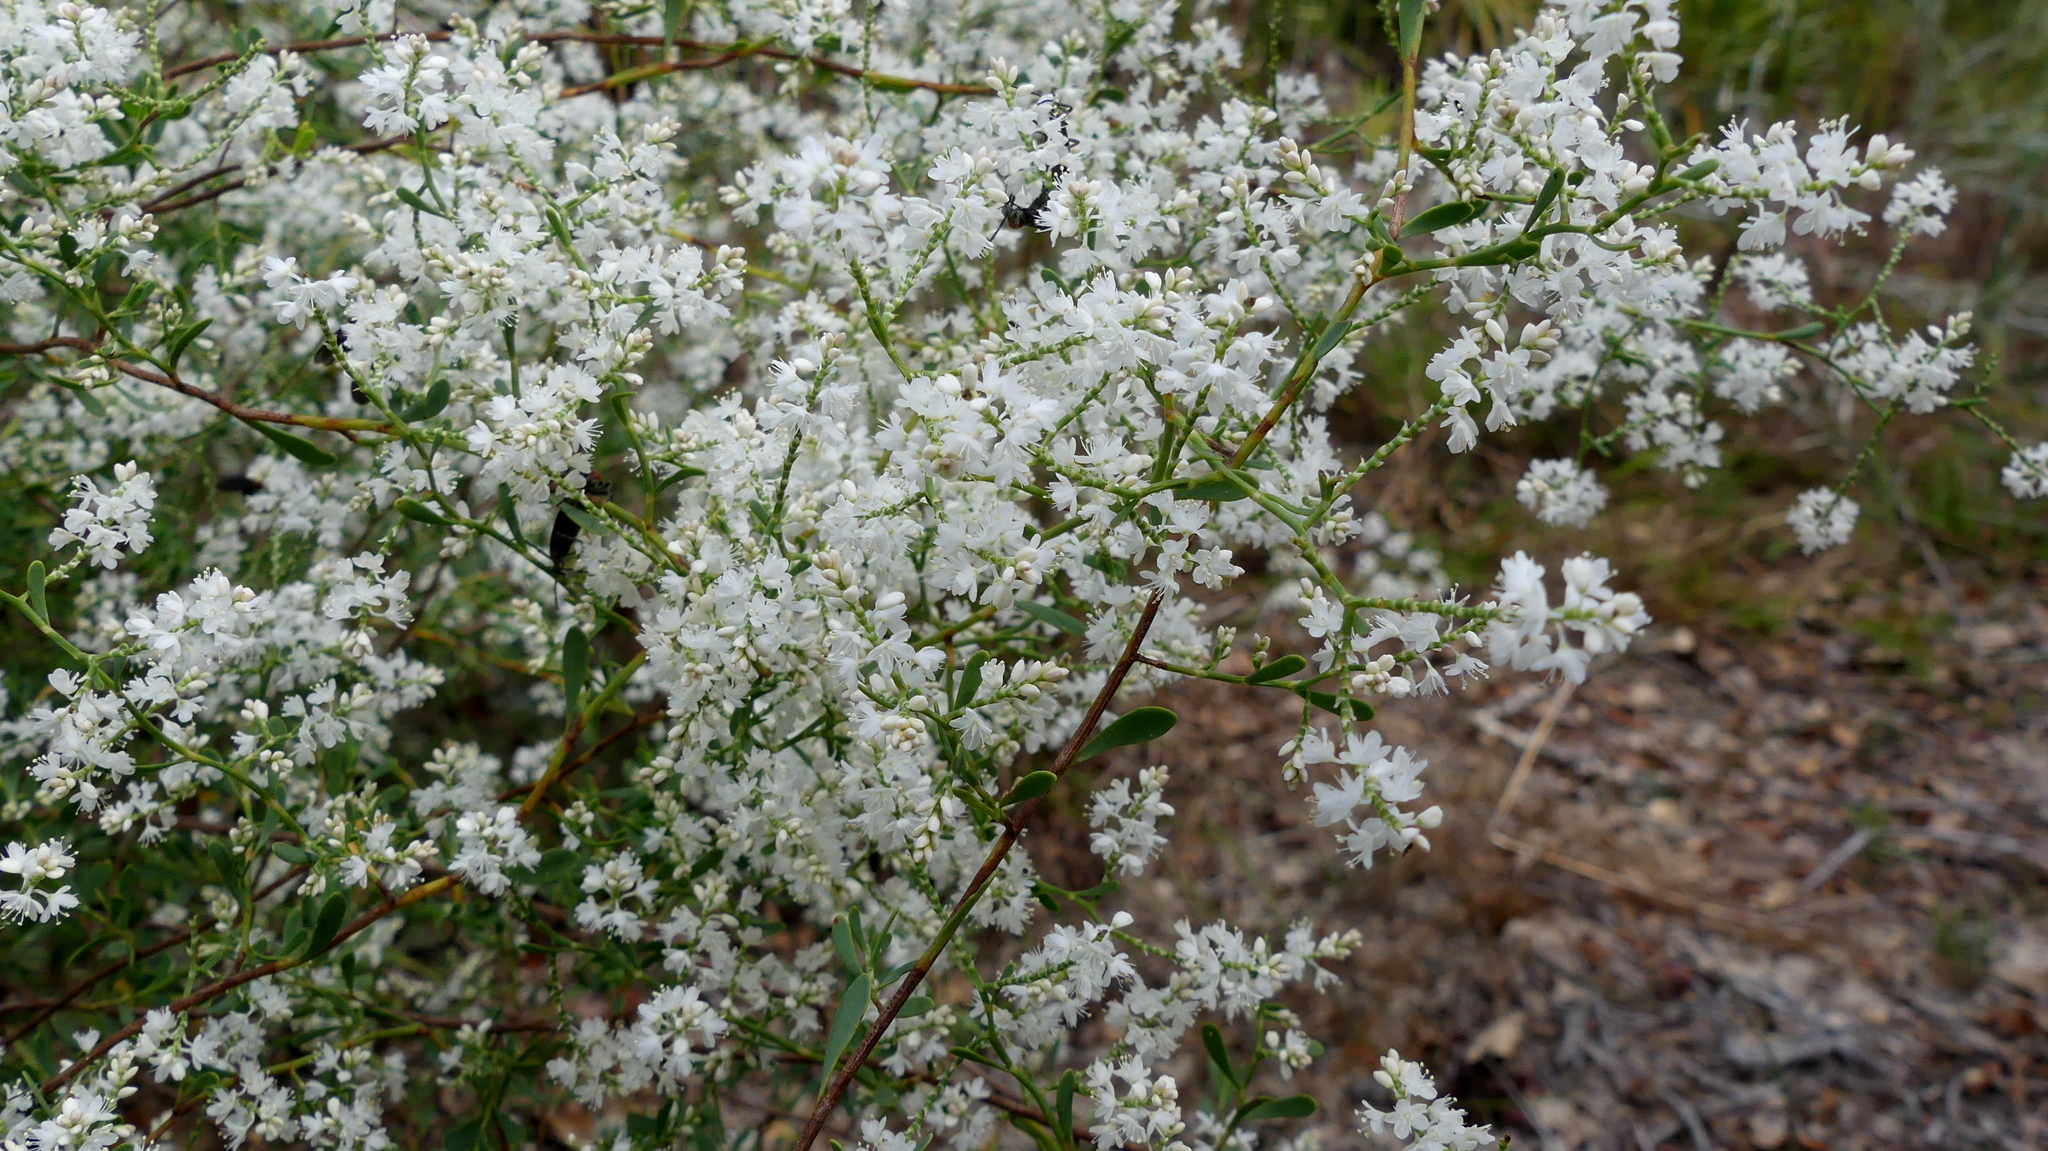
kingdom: Plantae
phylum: Tracheophyta
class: Magnoliopsida
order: Caryophyllales
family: Polygonaceae
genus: Polygonella
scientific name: Polygonella polygama
